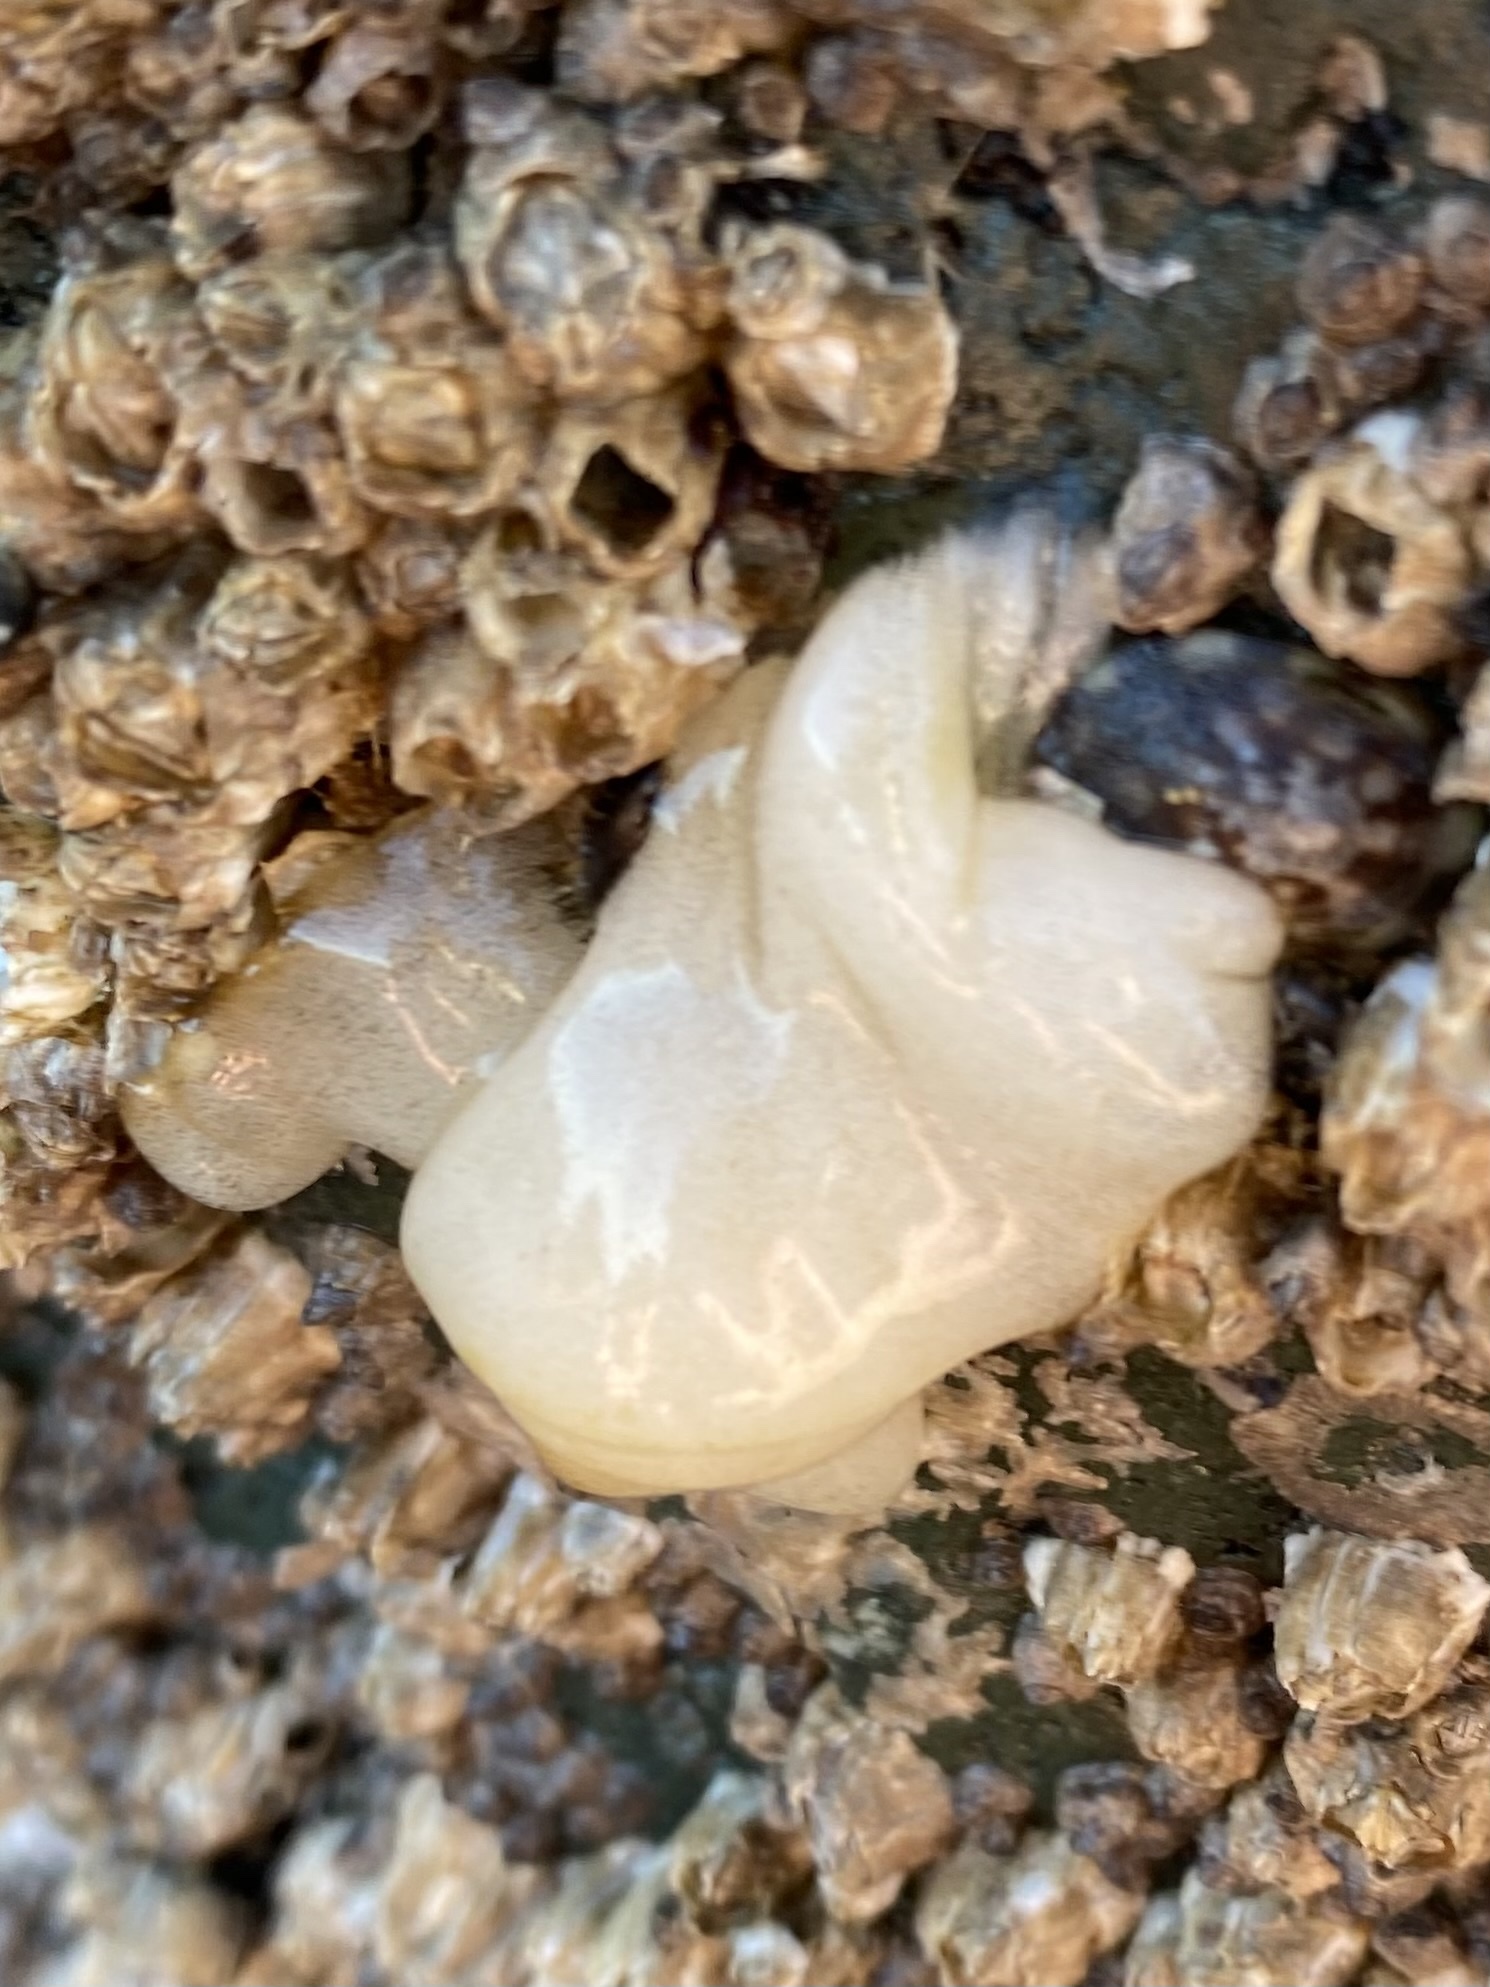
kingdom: Animalia
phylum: Mollusca
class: Gastropoda
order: Nudibranchia
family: Onchidorididae
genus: Onchidoris
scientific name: Onchidoris bilamellata
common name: Barnacle-eating onchidoris
